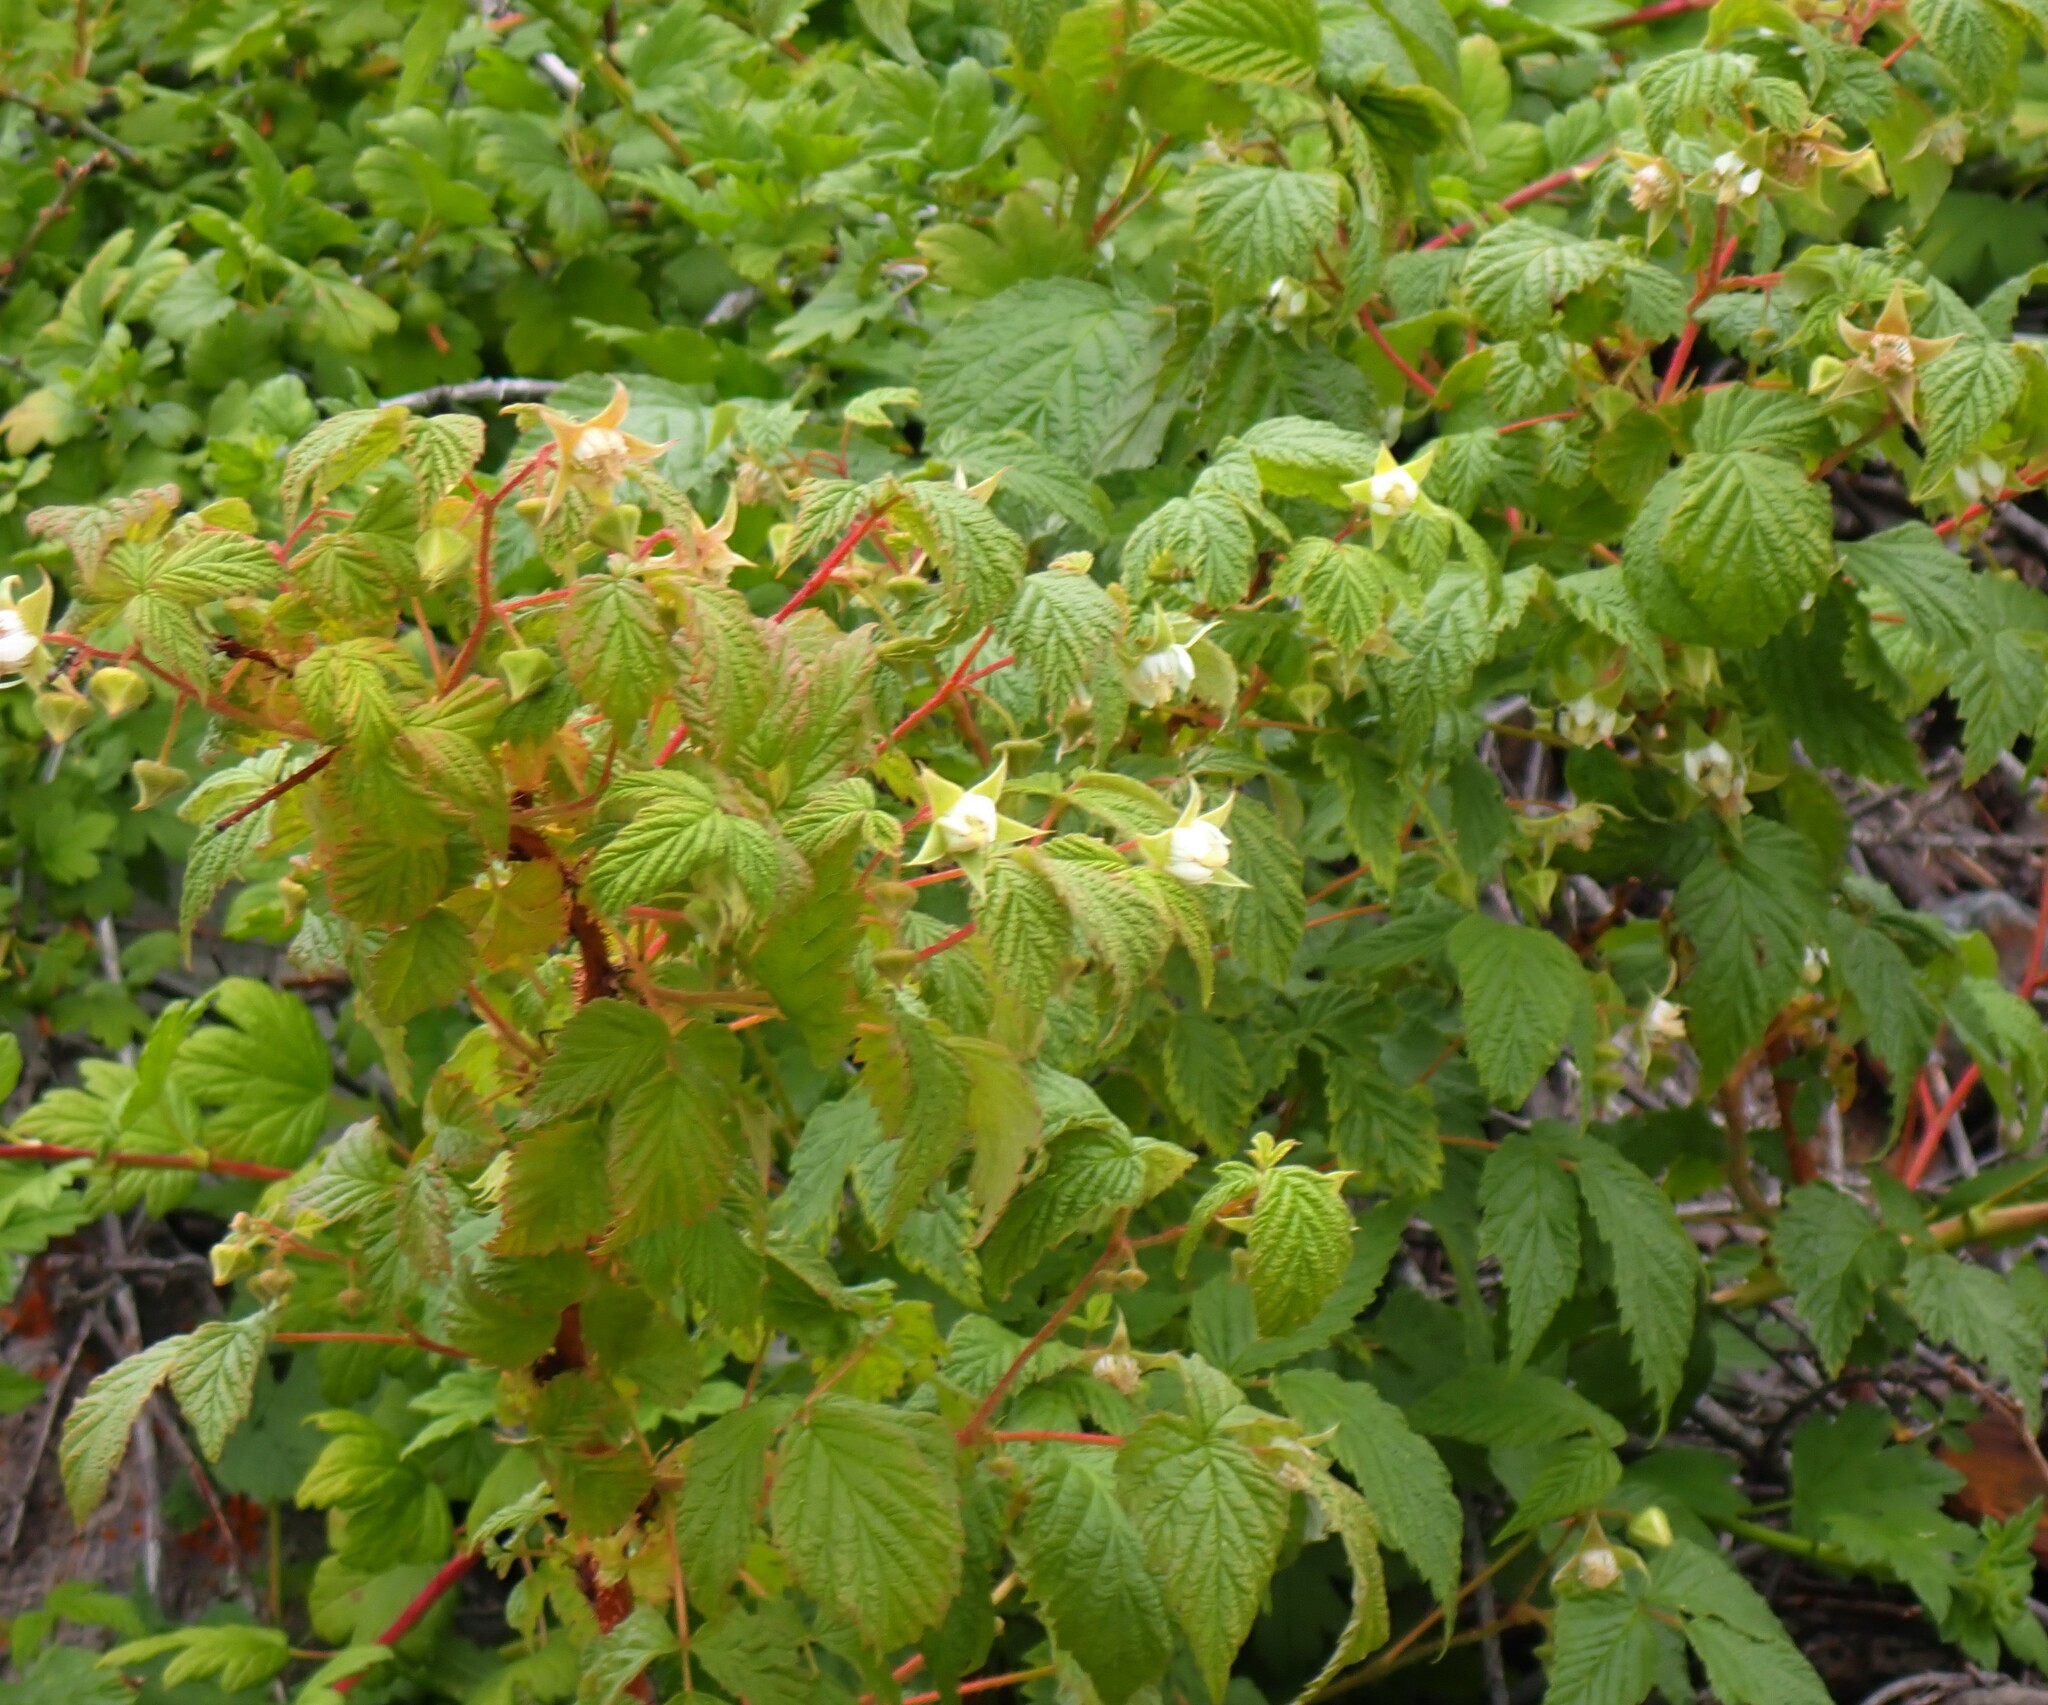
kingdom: Plantae
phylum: Tracheophyta
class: Magnoliopsida
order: Rosales
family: Rosaceae
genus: Rubus
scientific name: Rubus idaeus
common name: Raspberry
